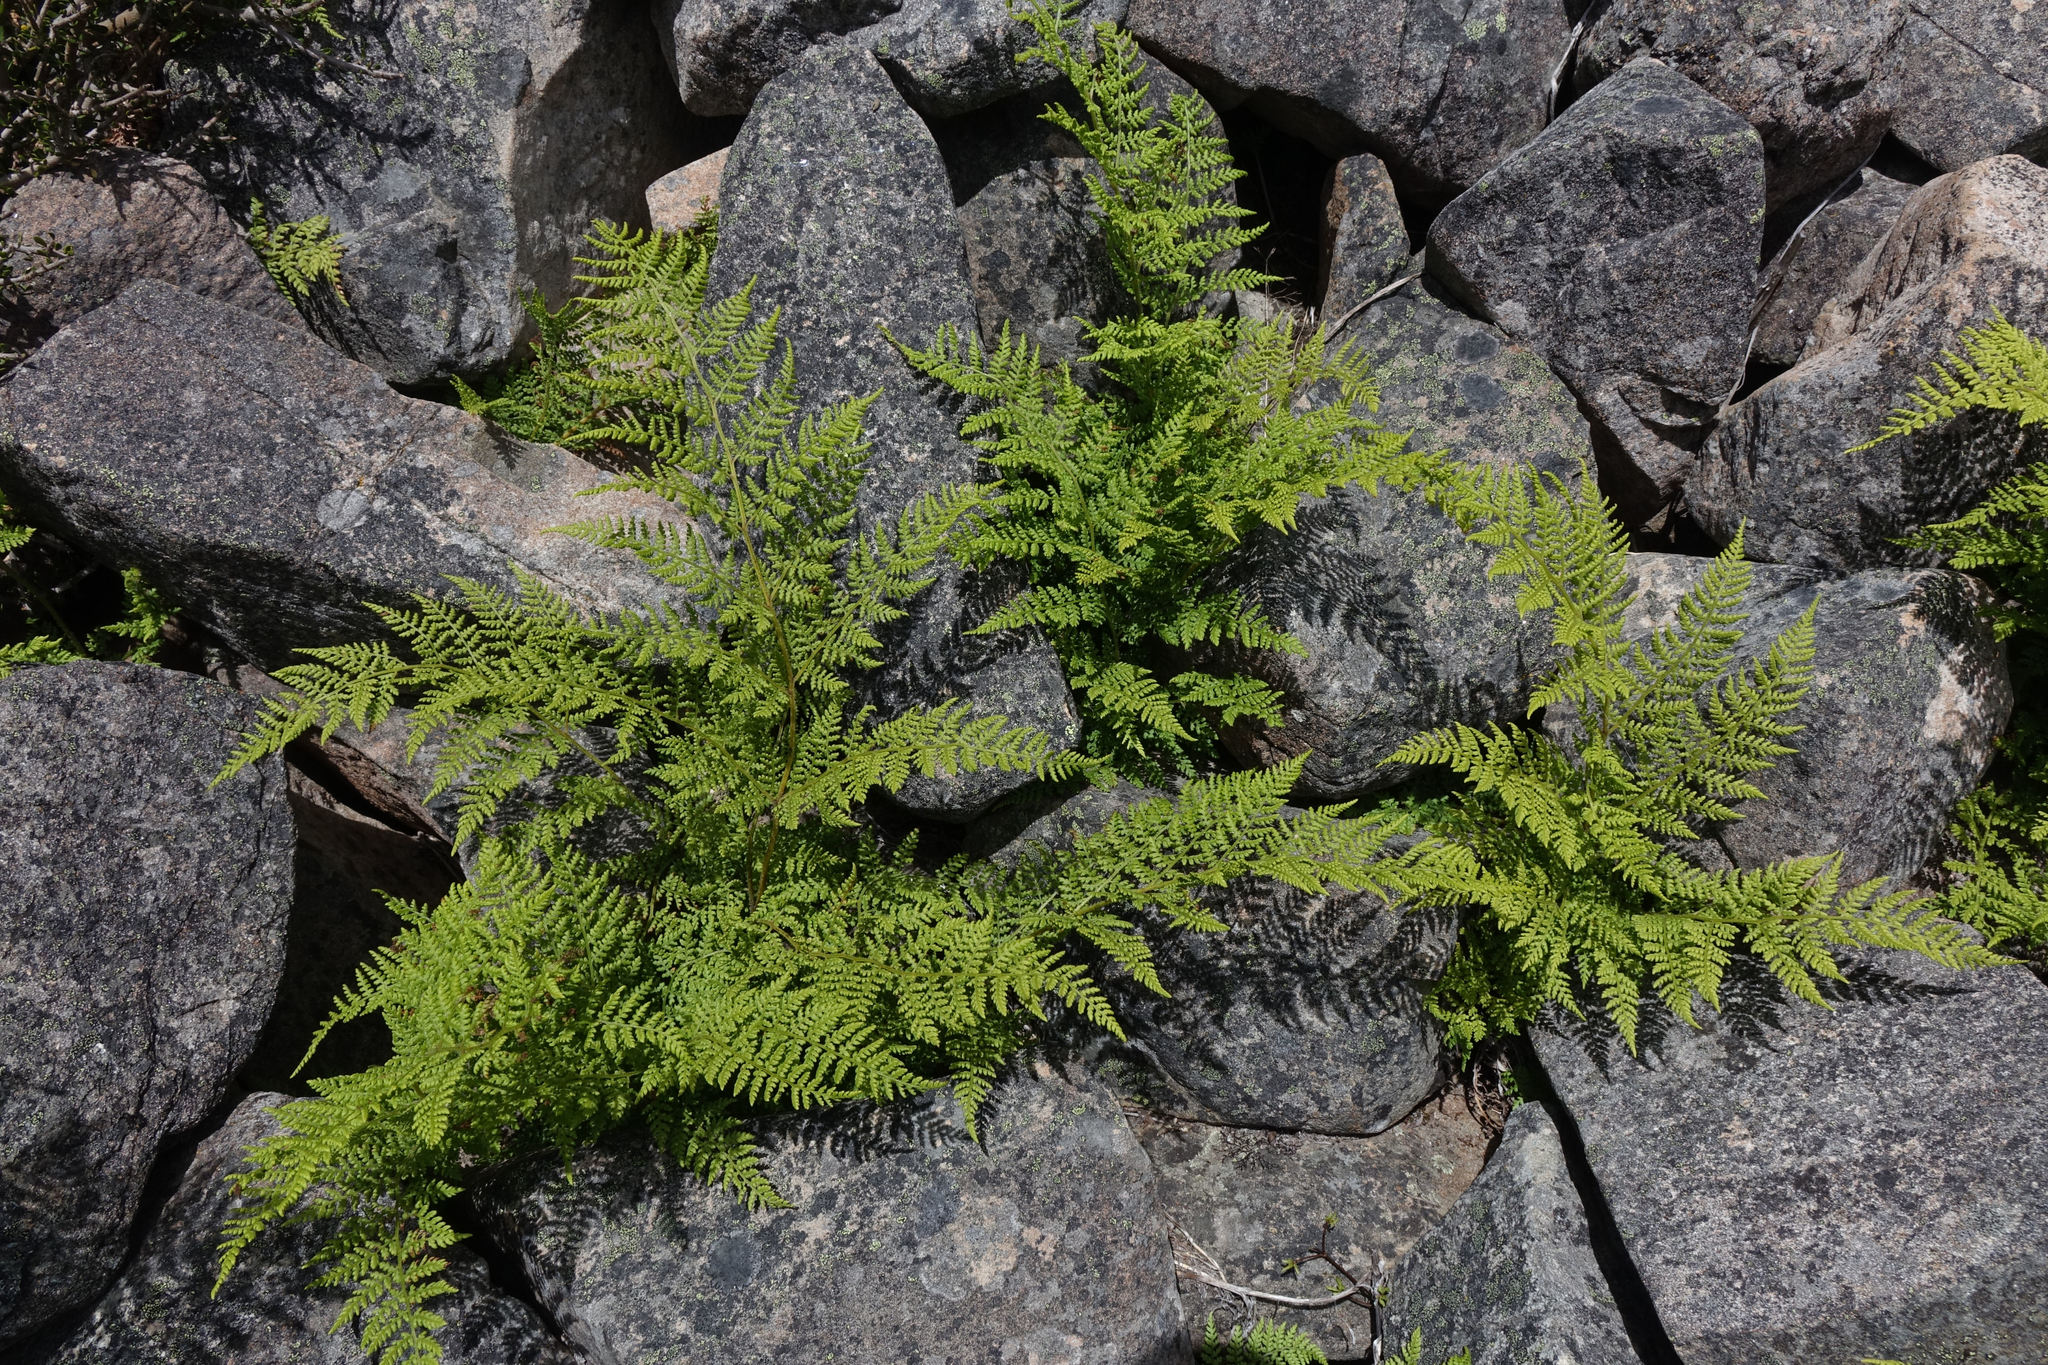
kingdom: Plantae
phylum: Tracheophyta
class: Polypodiopsida
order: Polypodiales
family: Dennstaedtiaceae
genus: Hypolepis
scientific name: Hypolepis millefolium
